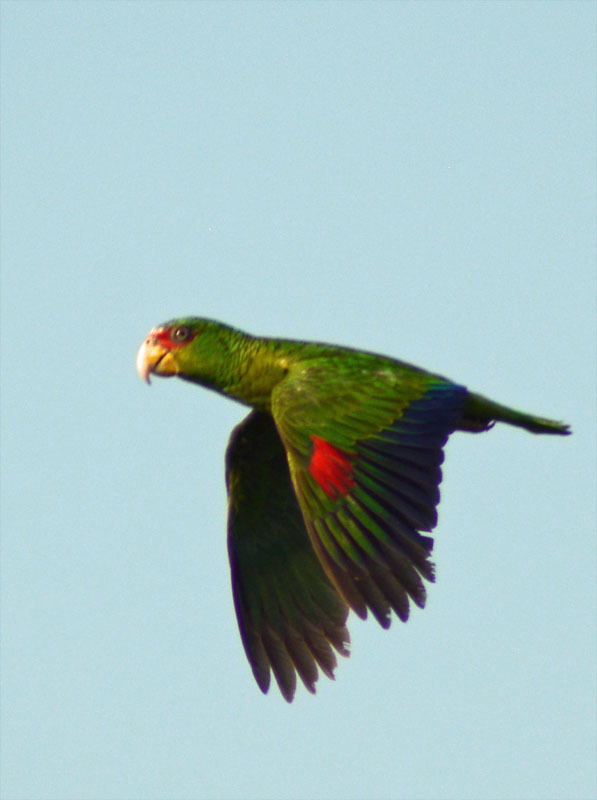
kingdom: Animalia
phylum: Chordata
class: Aves
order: Psittaciformes
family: Psittacidae
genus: Amazona
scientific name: Amazona albifrons
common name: White-fronted amazon
